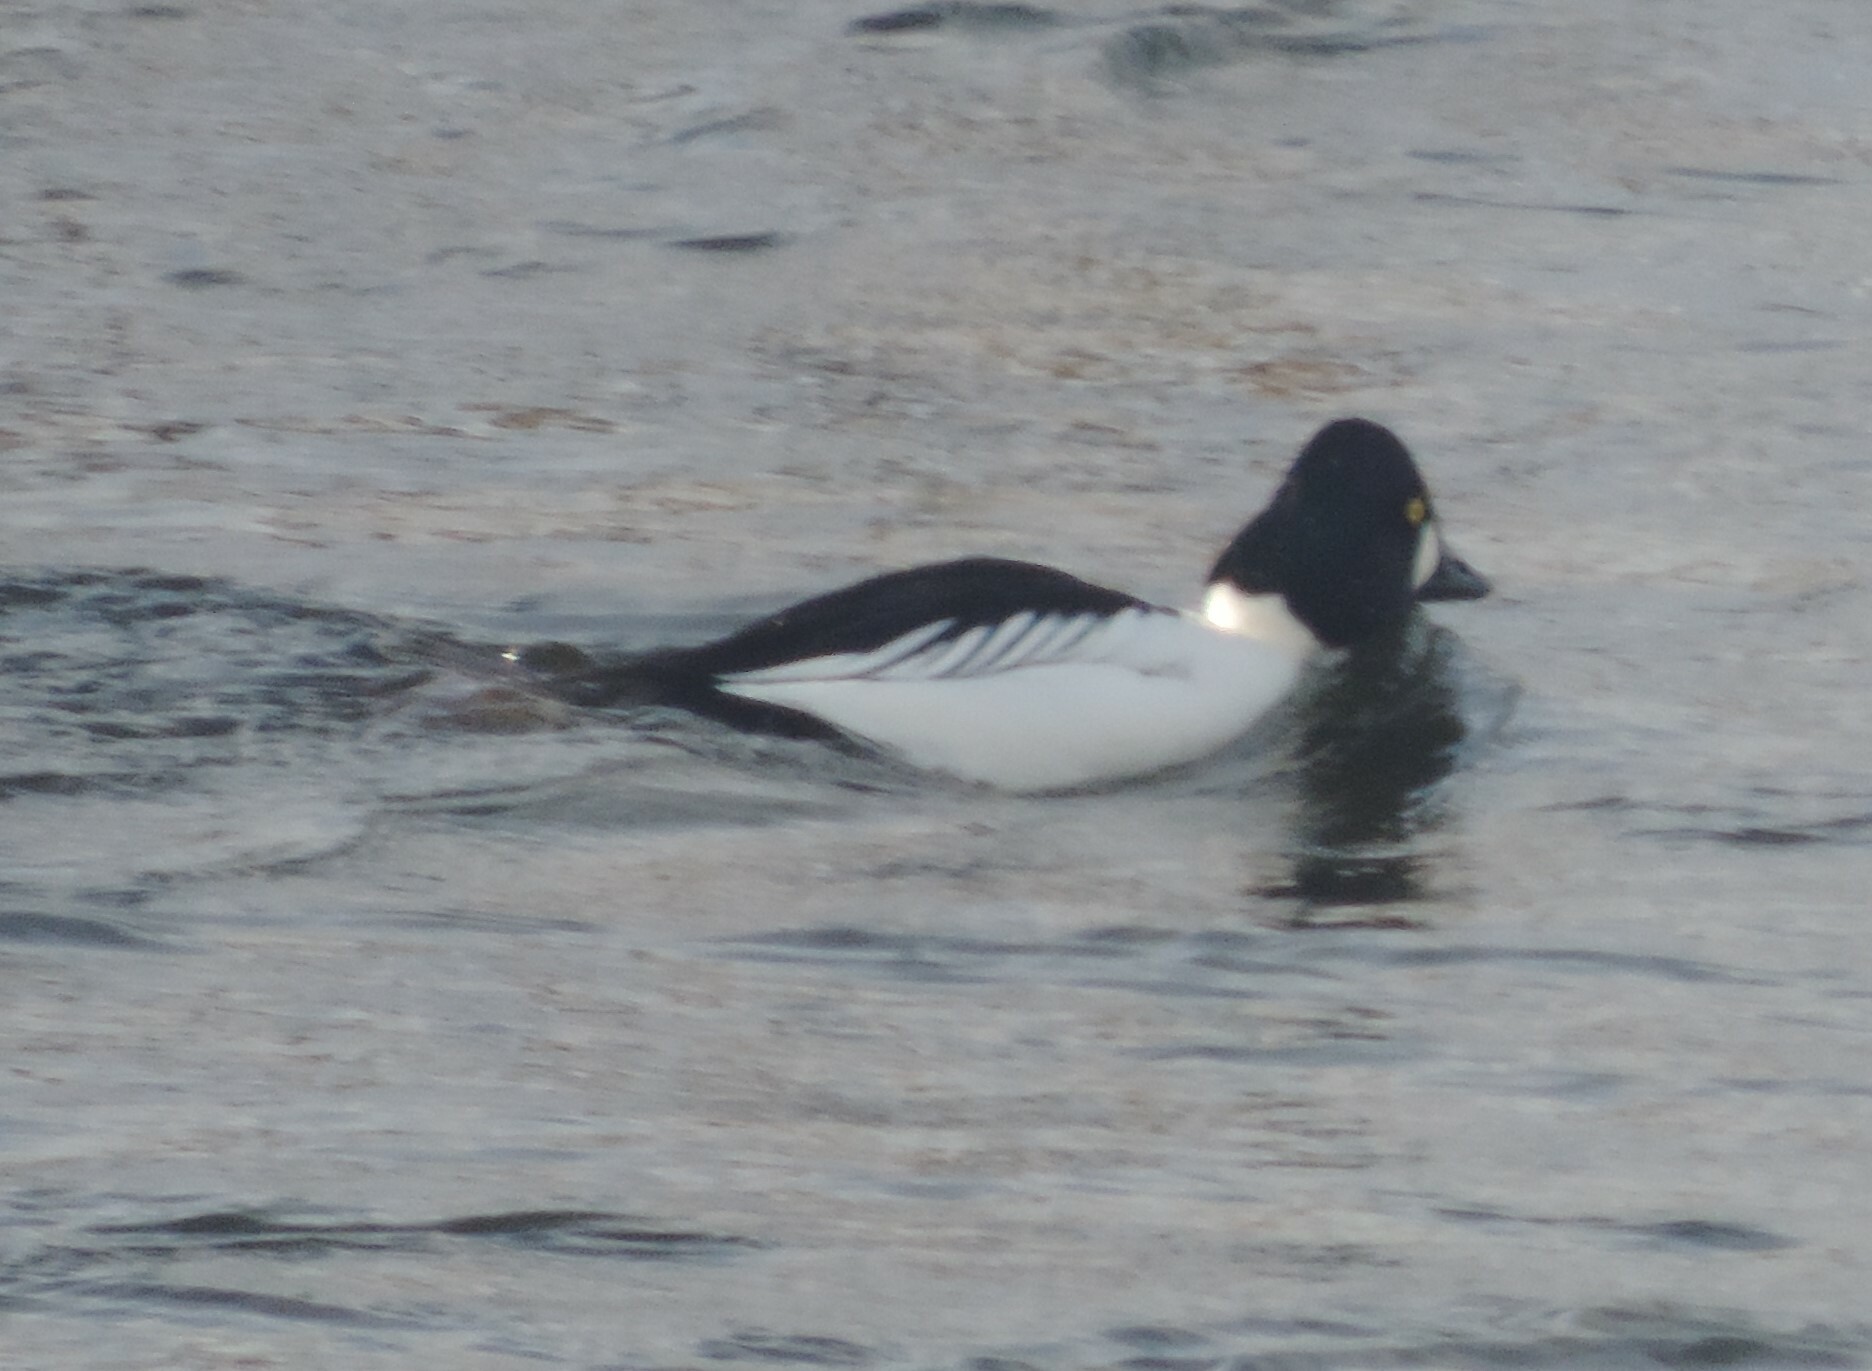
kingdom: Animalia
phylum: Chordata
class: Aves
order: Anseriformes
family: Anatidae
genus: Bucephala
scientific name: Bucephala clangula
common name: Common goldeneye
